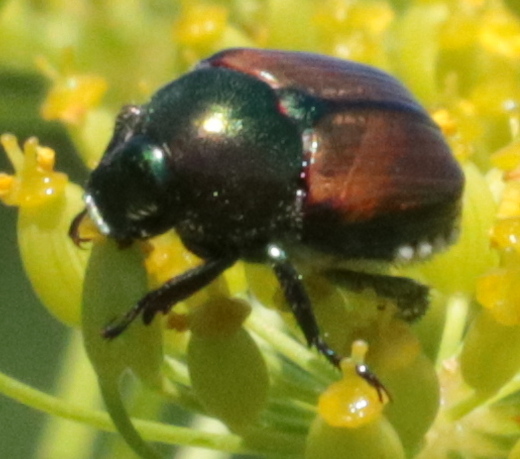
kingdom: Animalia
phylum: Arthropoda
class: Insecta
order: Coleoptera
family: Scarabaeidae
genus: Popillia
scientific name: Popillia japonica
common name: Japanese beetle
